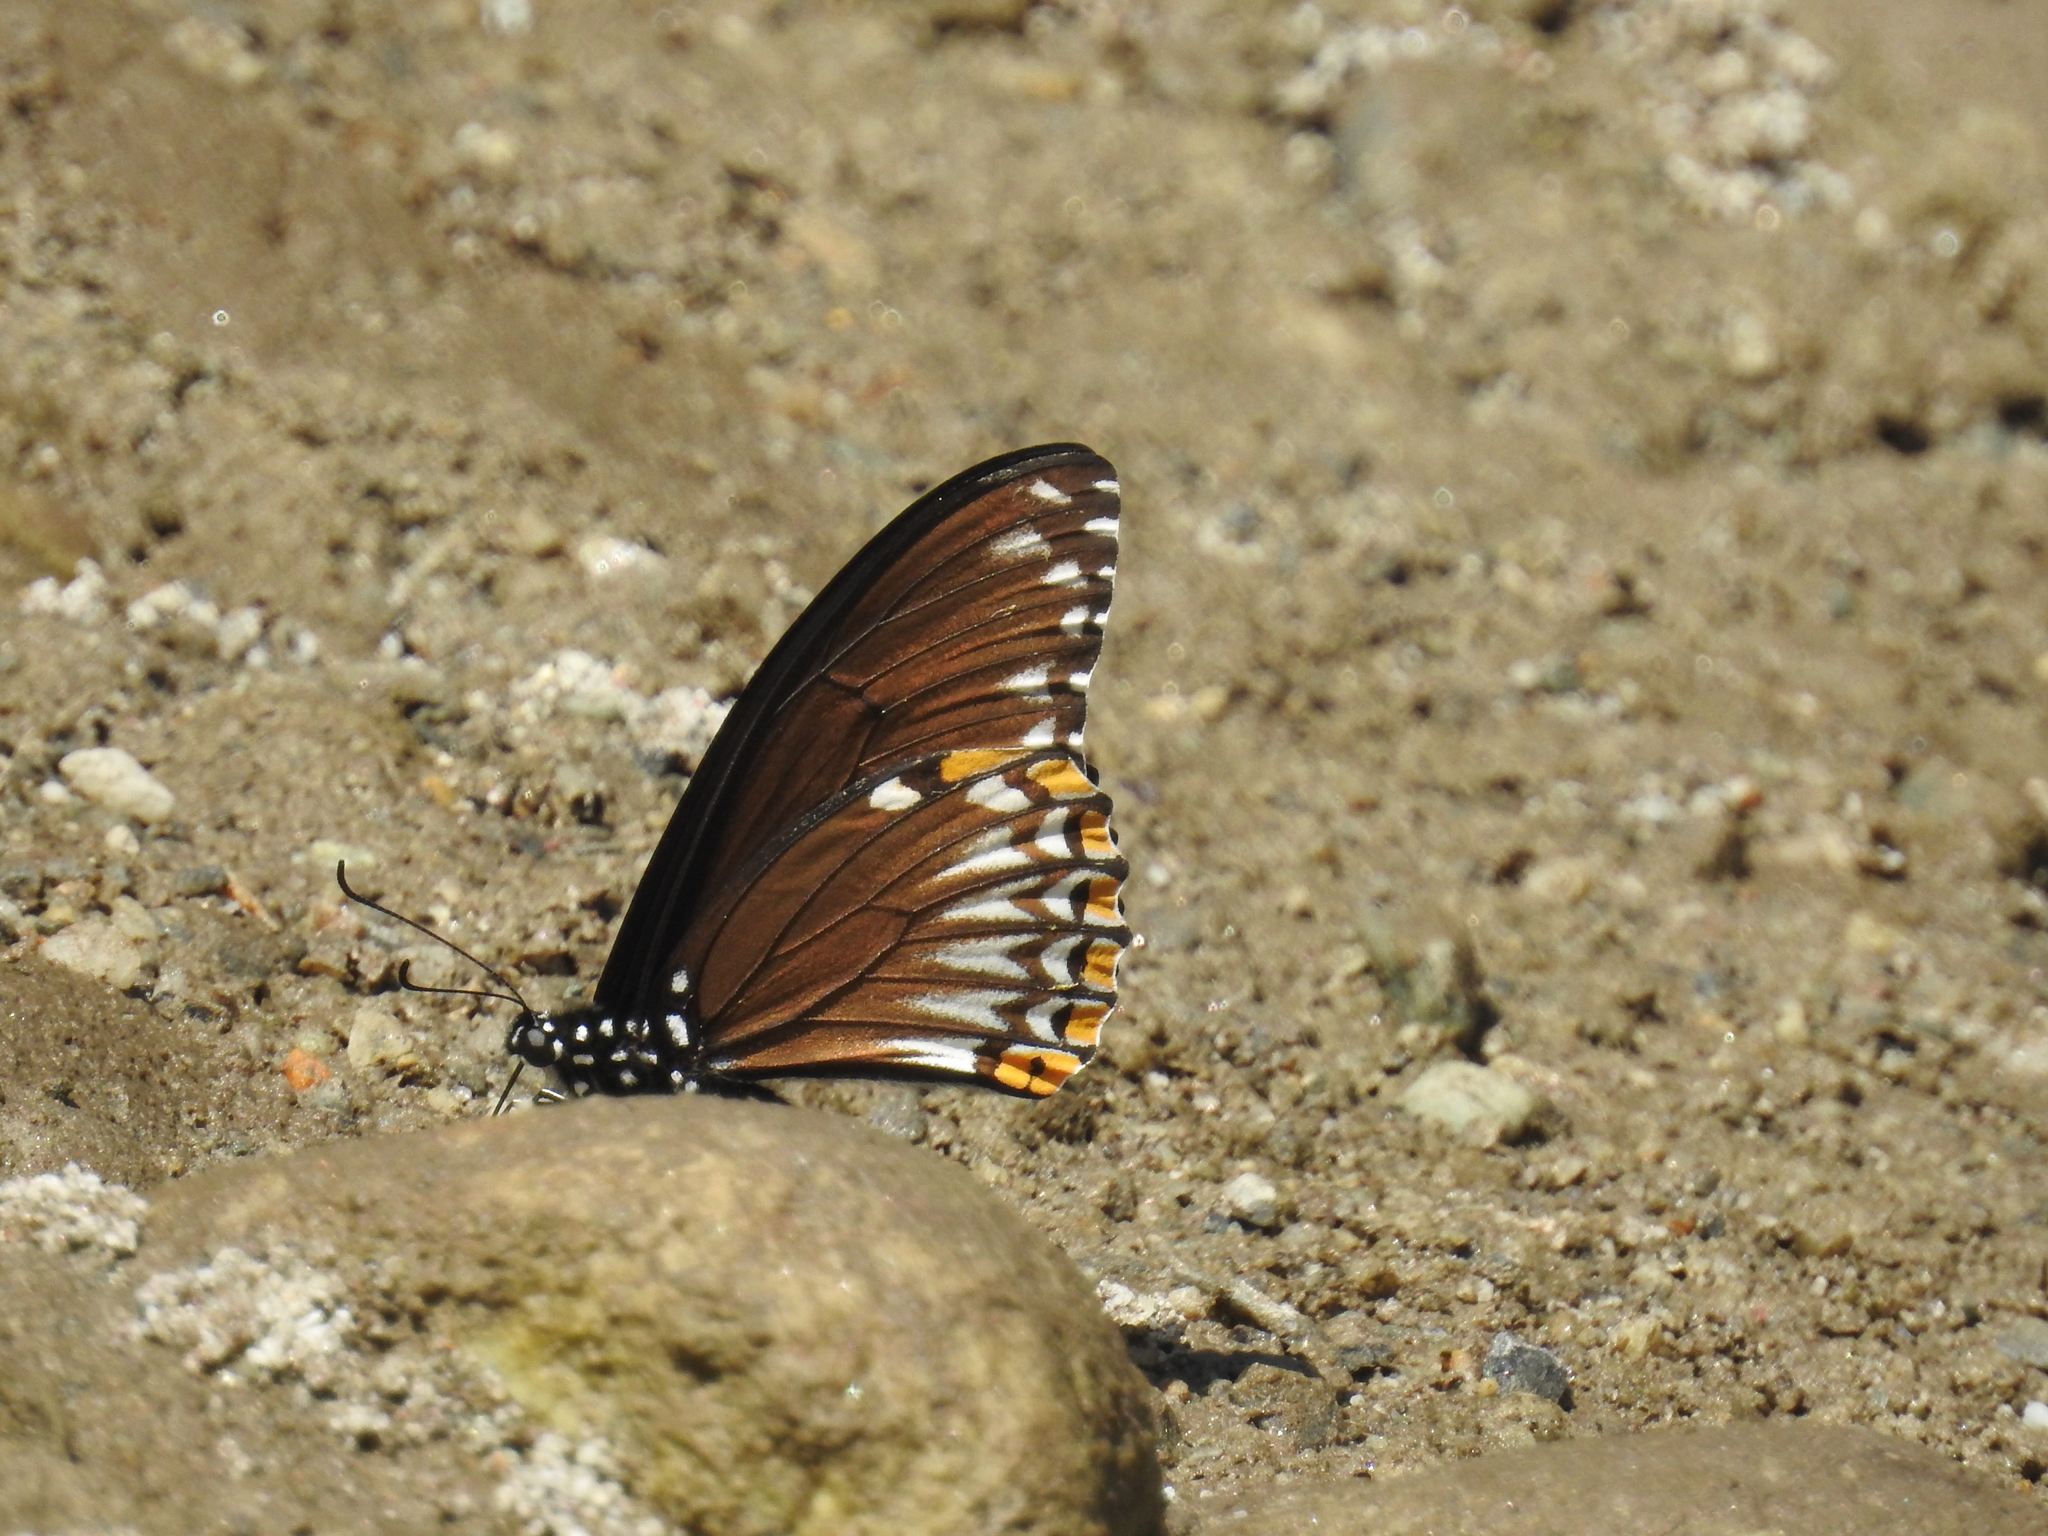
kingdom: Animalia
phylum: Arthropoda
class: Insecta
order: Lepidoptera
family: Papilionidae
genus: Chilasa
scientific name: Chilasa clytia
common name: Common mime
